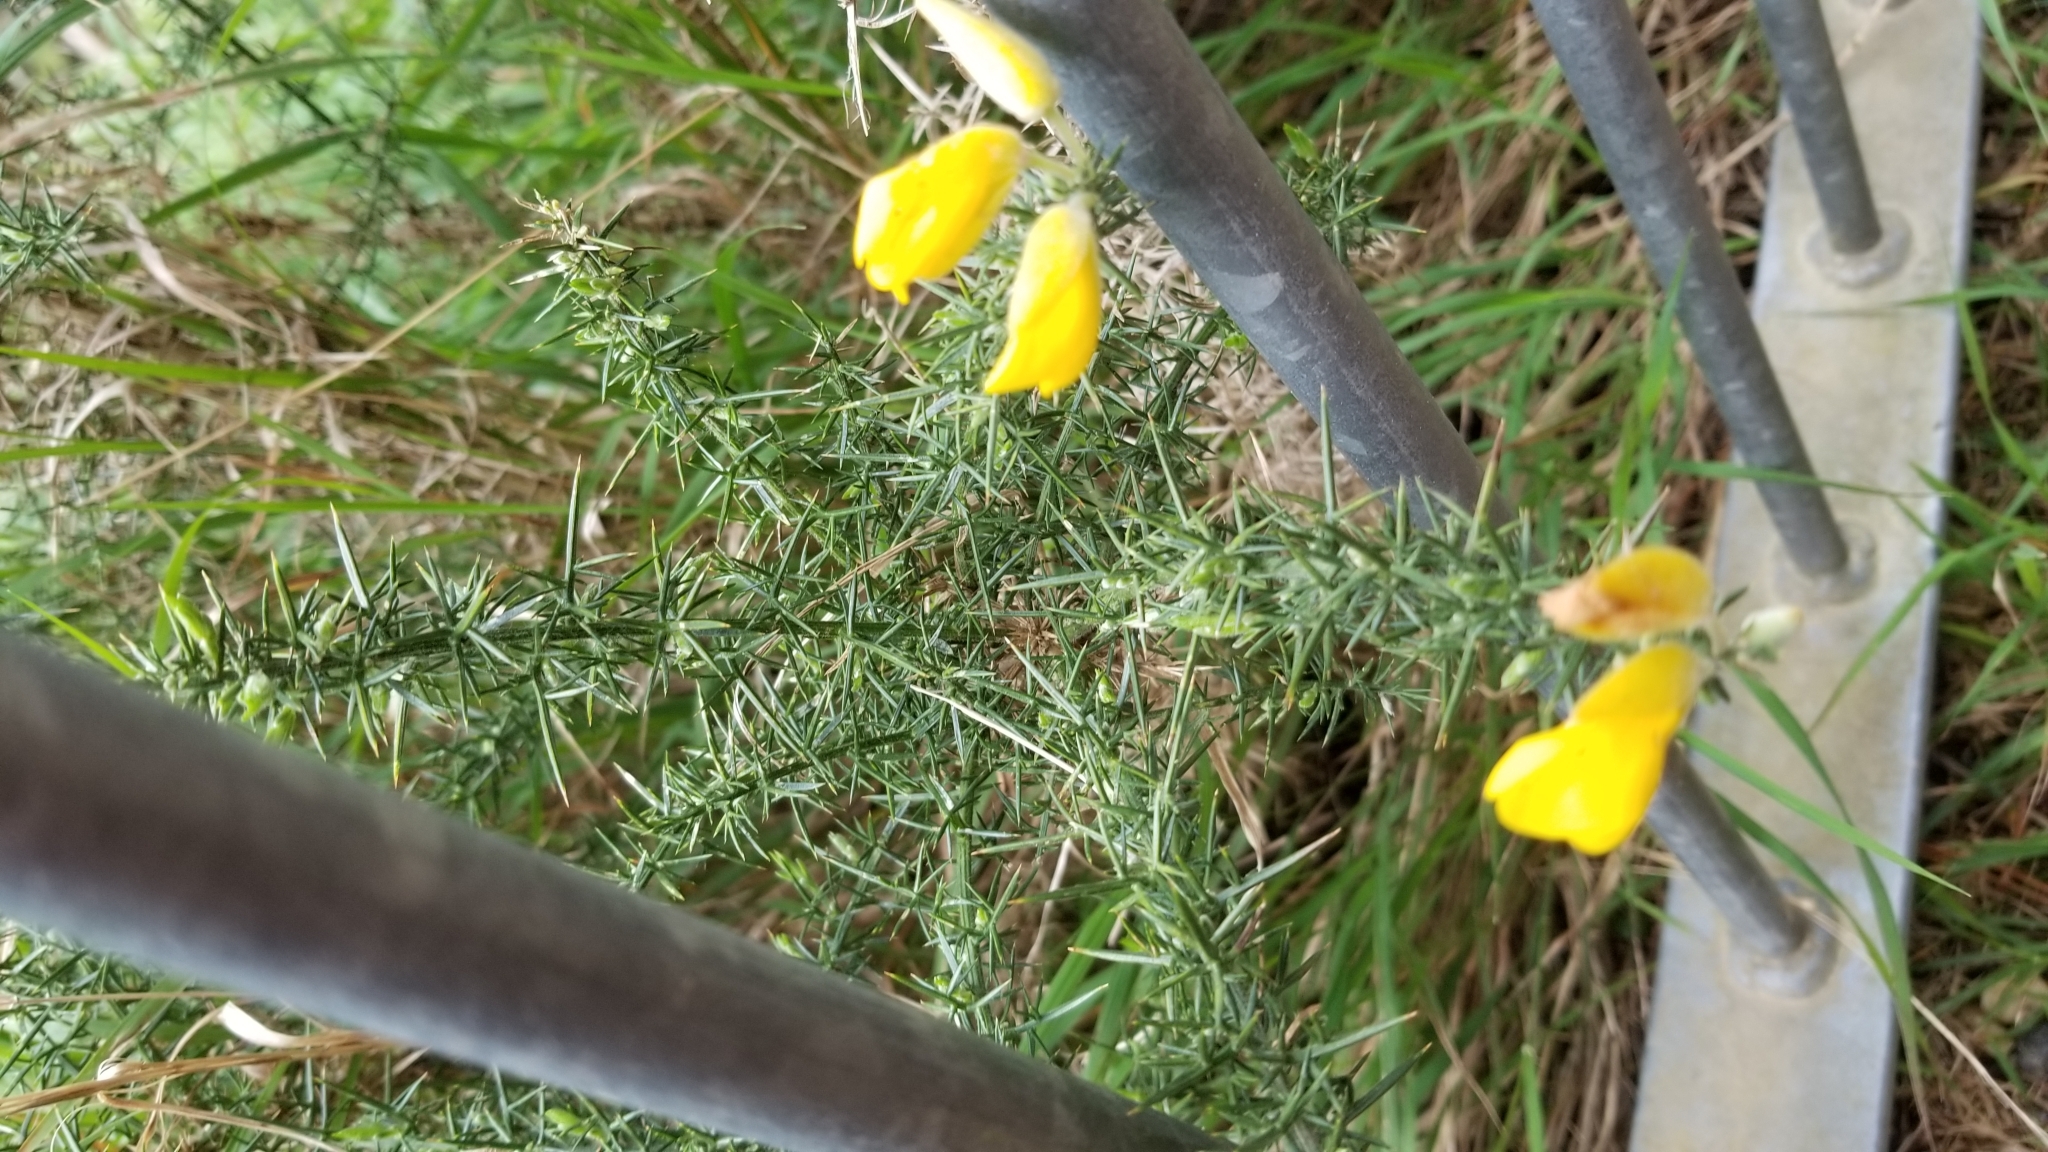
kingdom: Plantae
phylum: Tracheophyta
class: Magnoliopsida
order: Fabales
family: Fabaceae
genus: Ulex
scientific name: Ulex europaeus
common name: Common gorse
